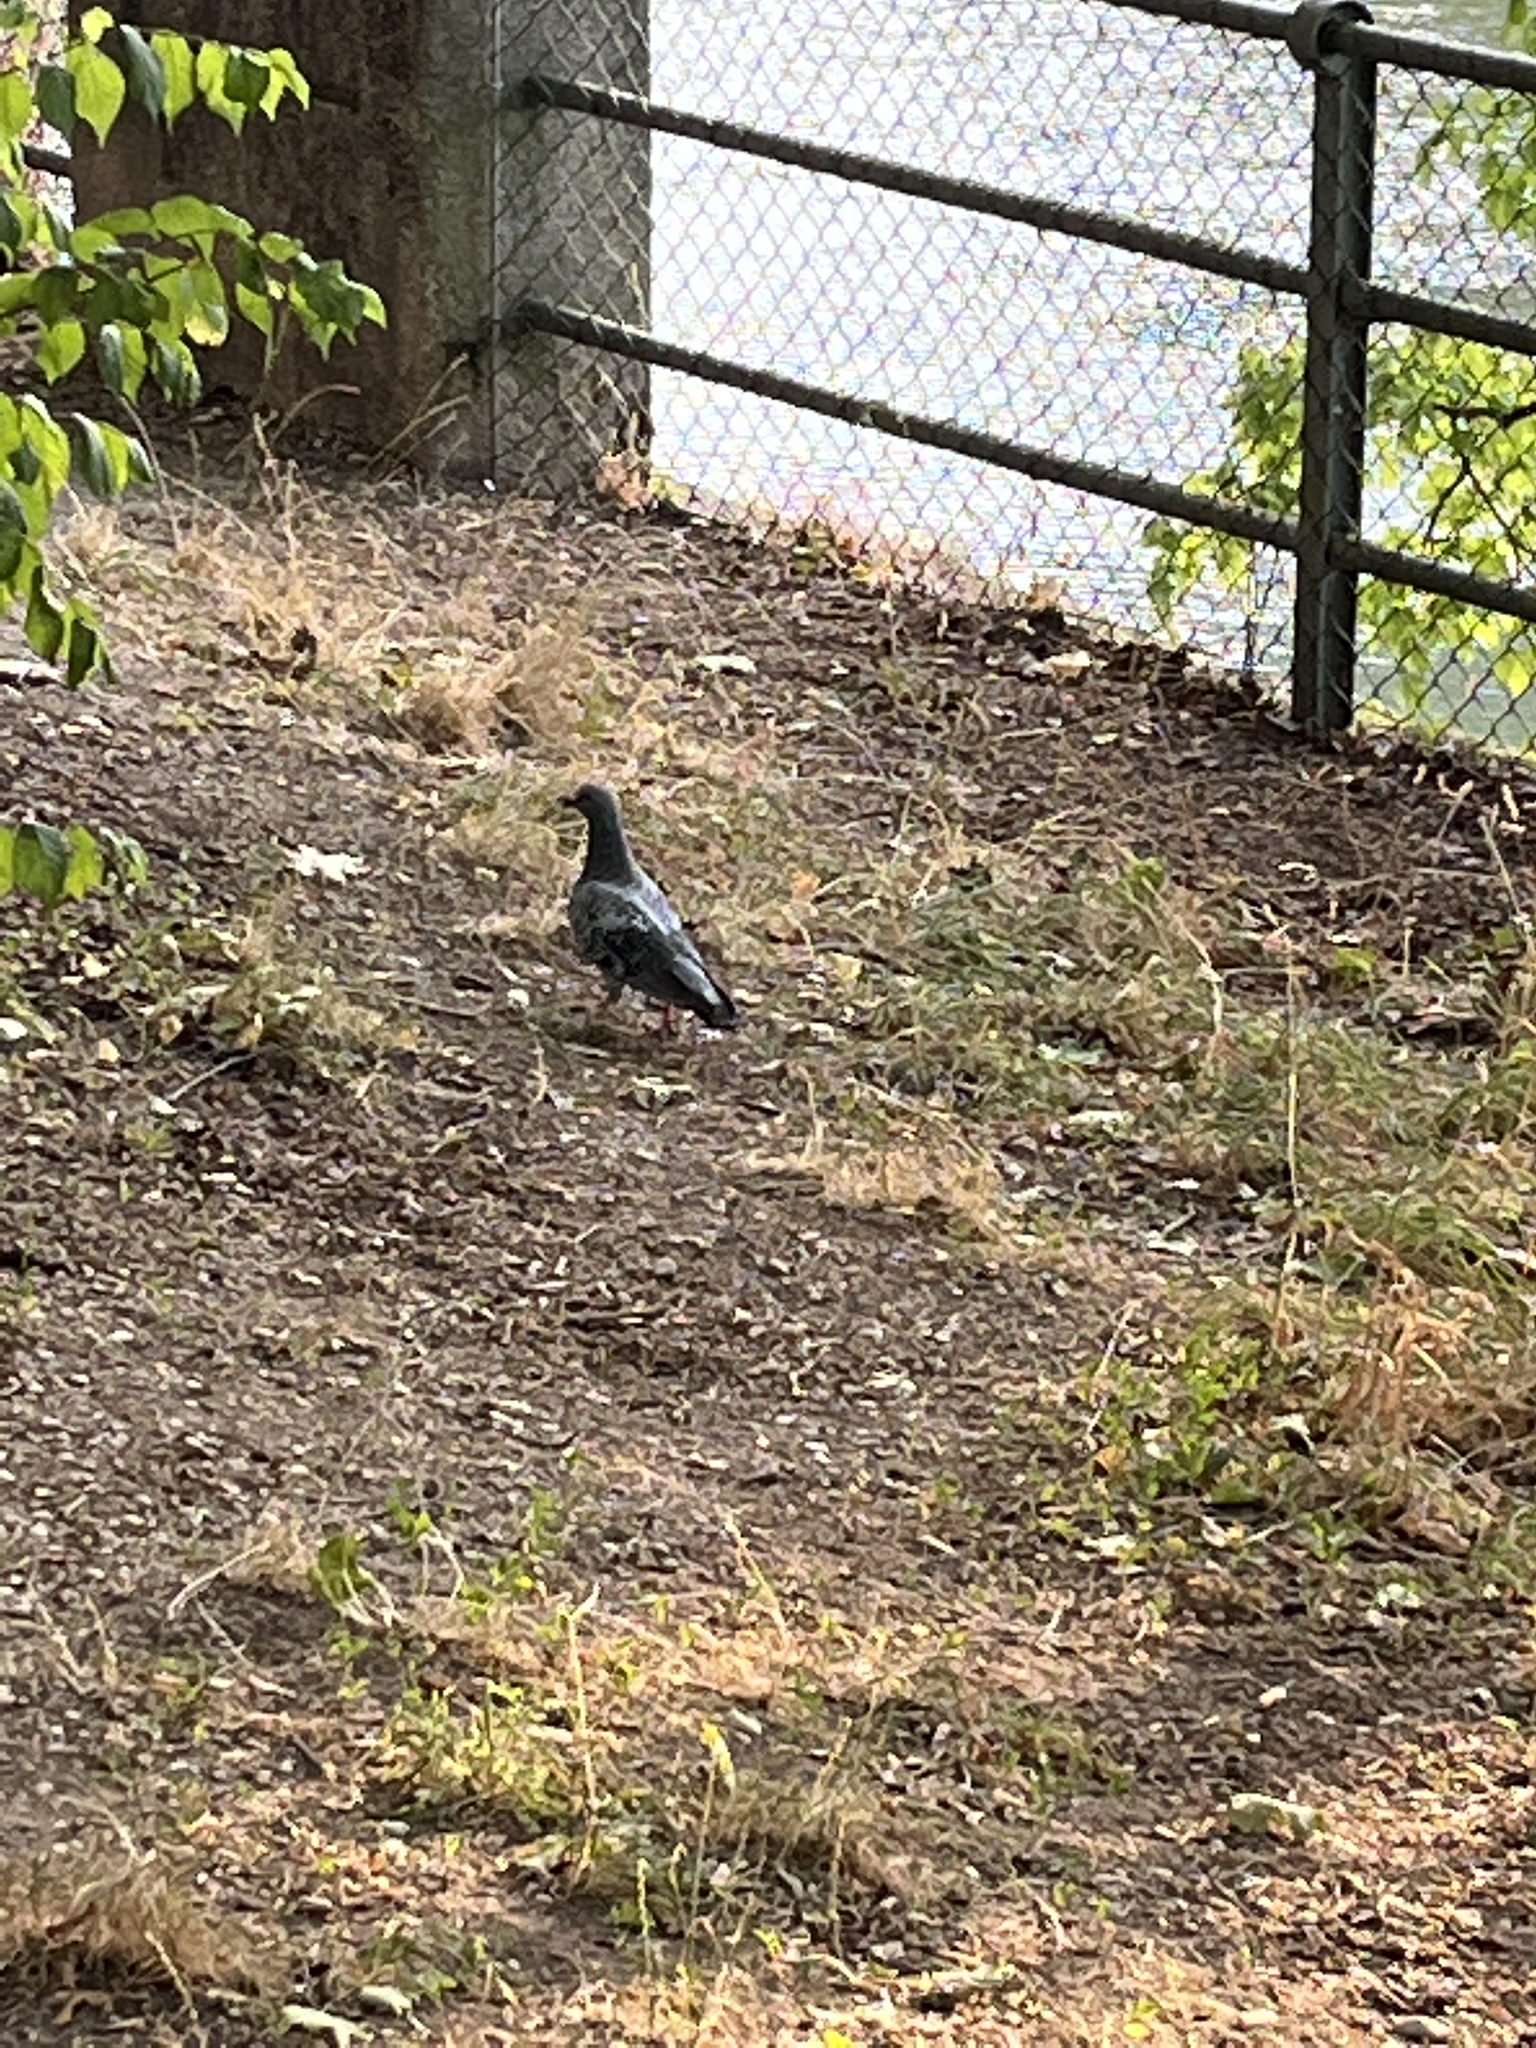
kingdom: Animalia
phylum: Chordata
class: Aves
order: Columbiformes
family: Columbidae
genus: Columba
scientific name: Columba livia
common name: Rock pigeon
